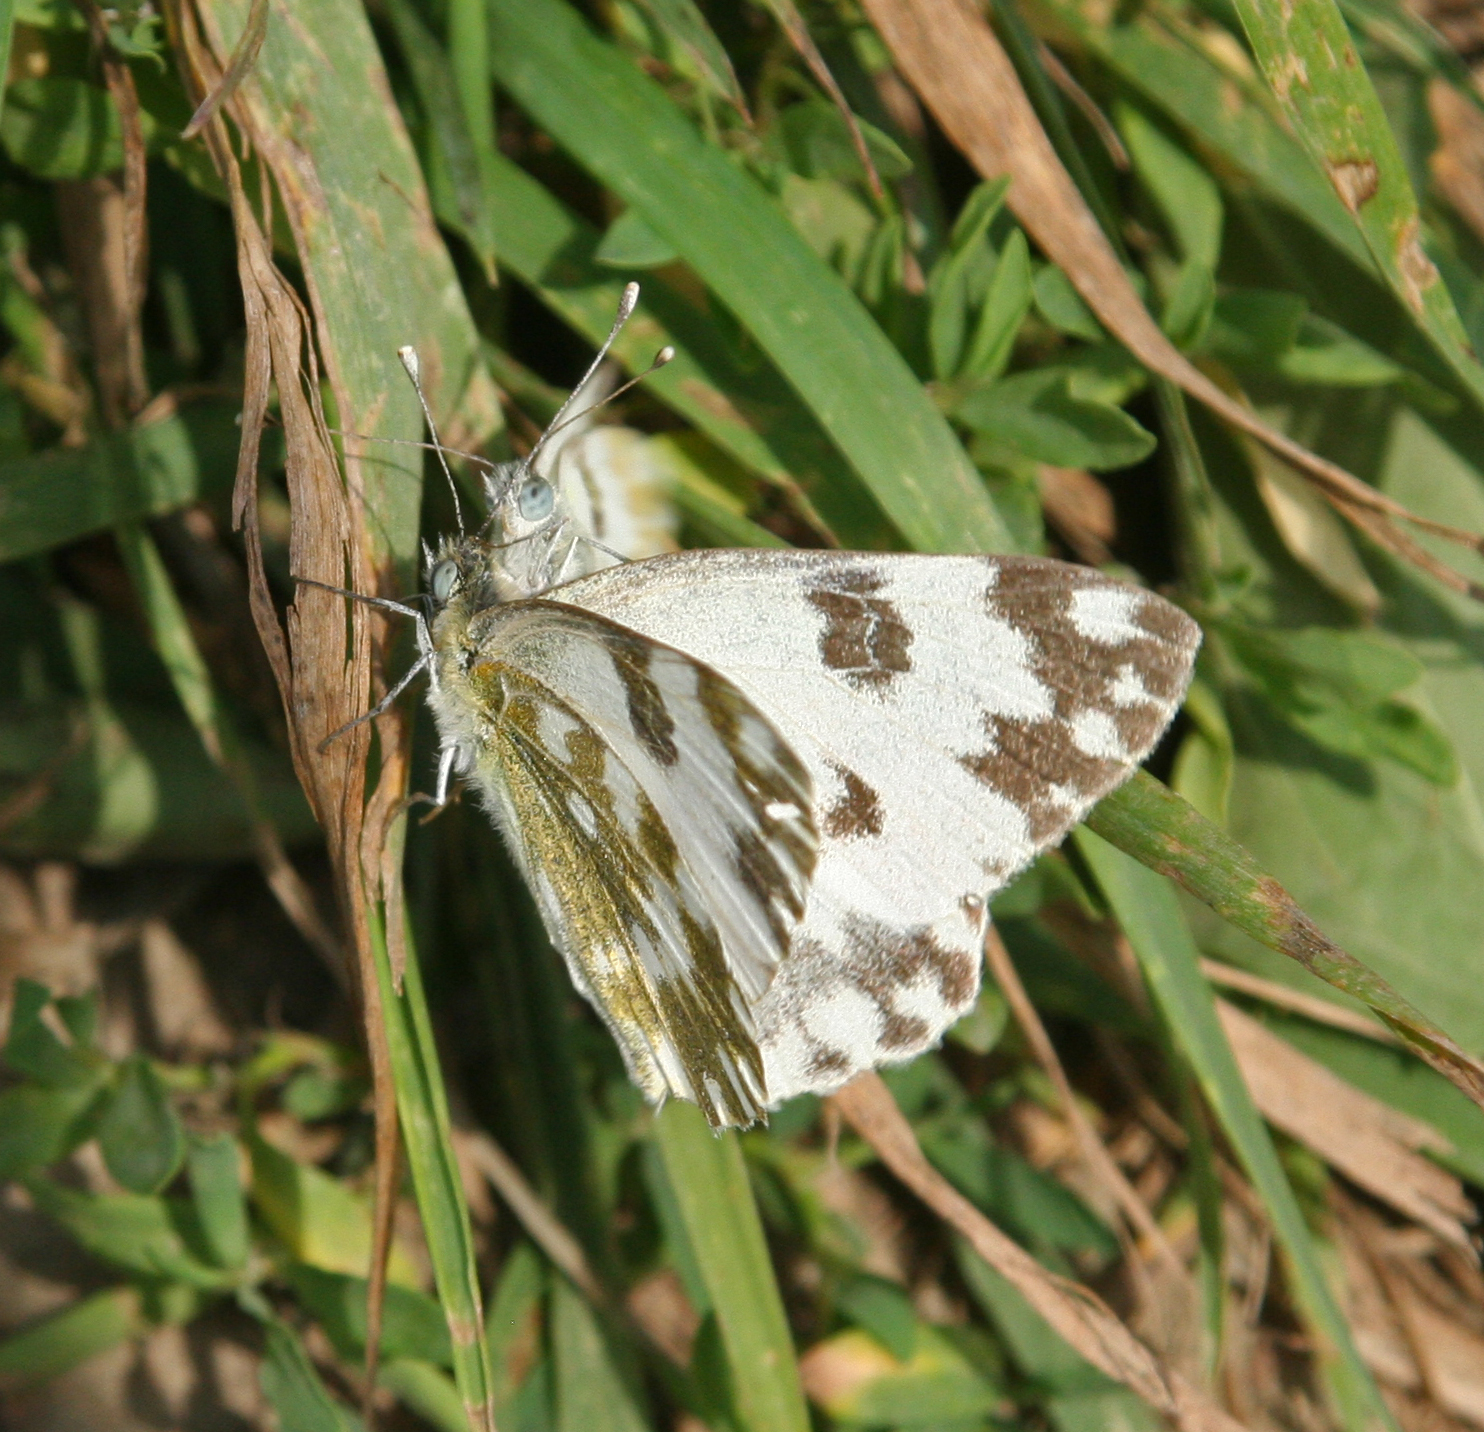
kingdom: Animalia
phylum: Arthropoda
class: Insecta
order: Lepidoptera
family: Pieridae
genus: Pontia
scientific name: Pontia edusa
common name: Eastern bath white
